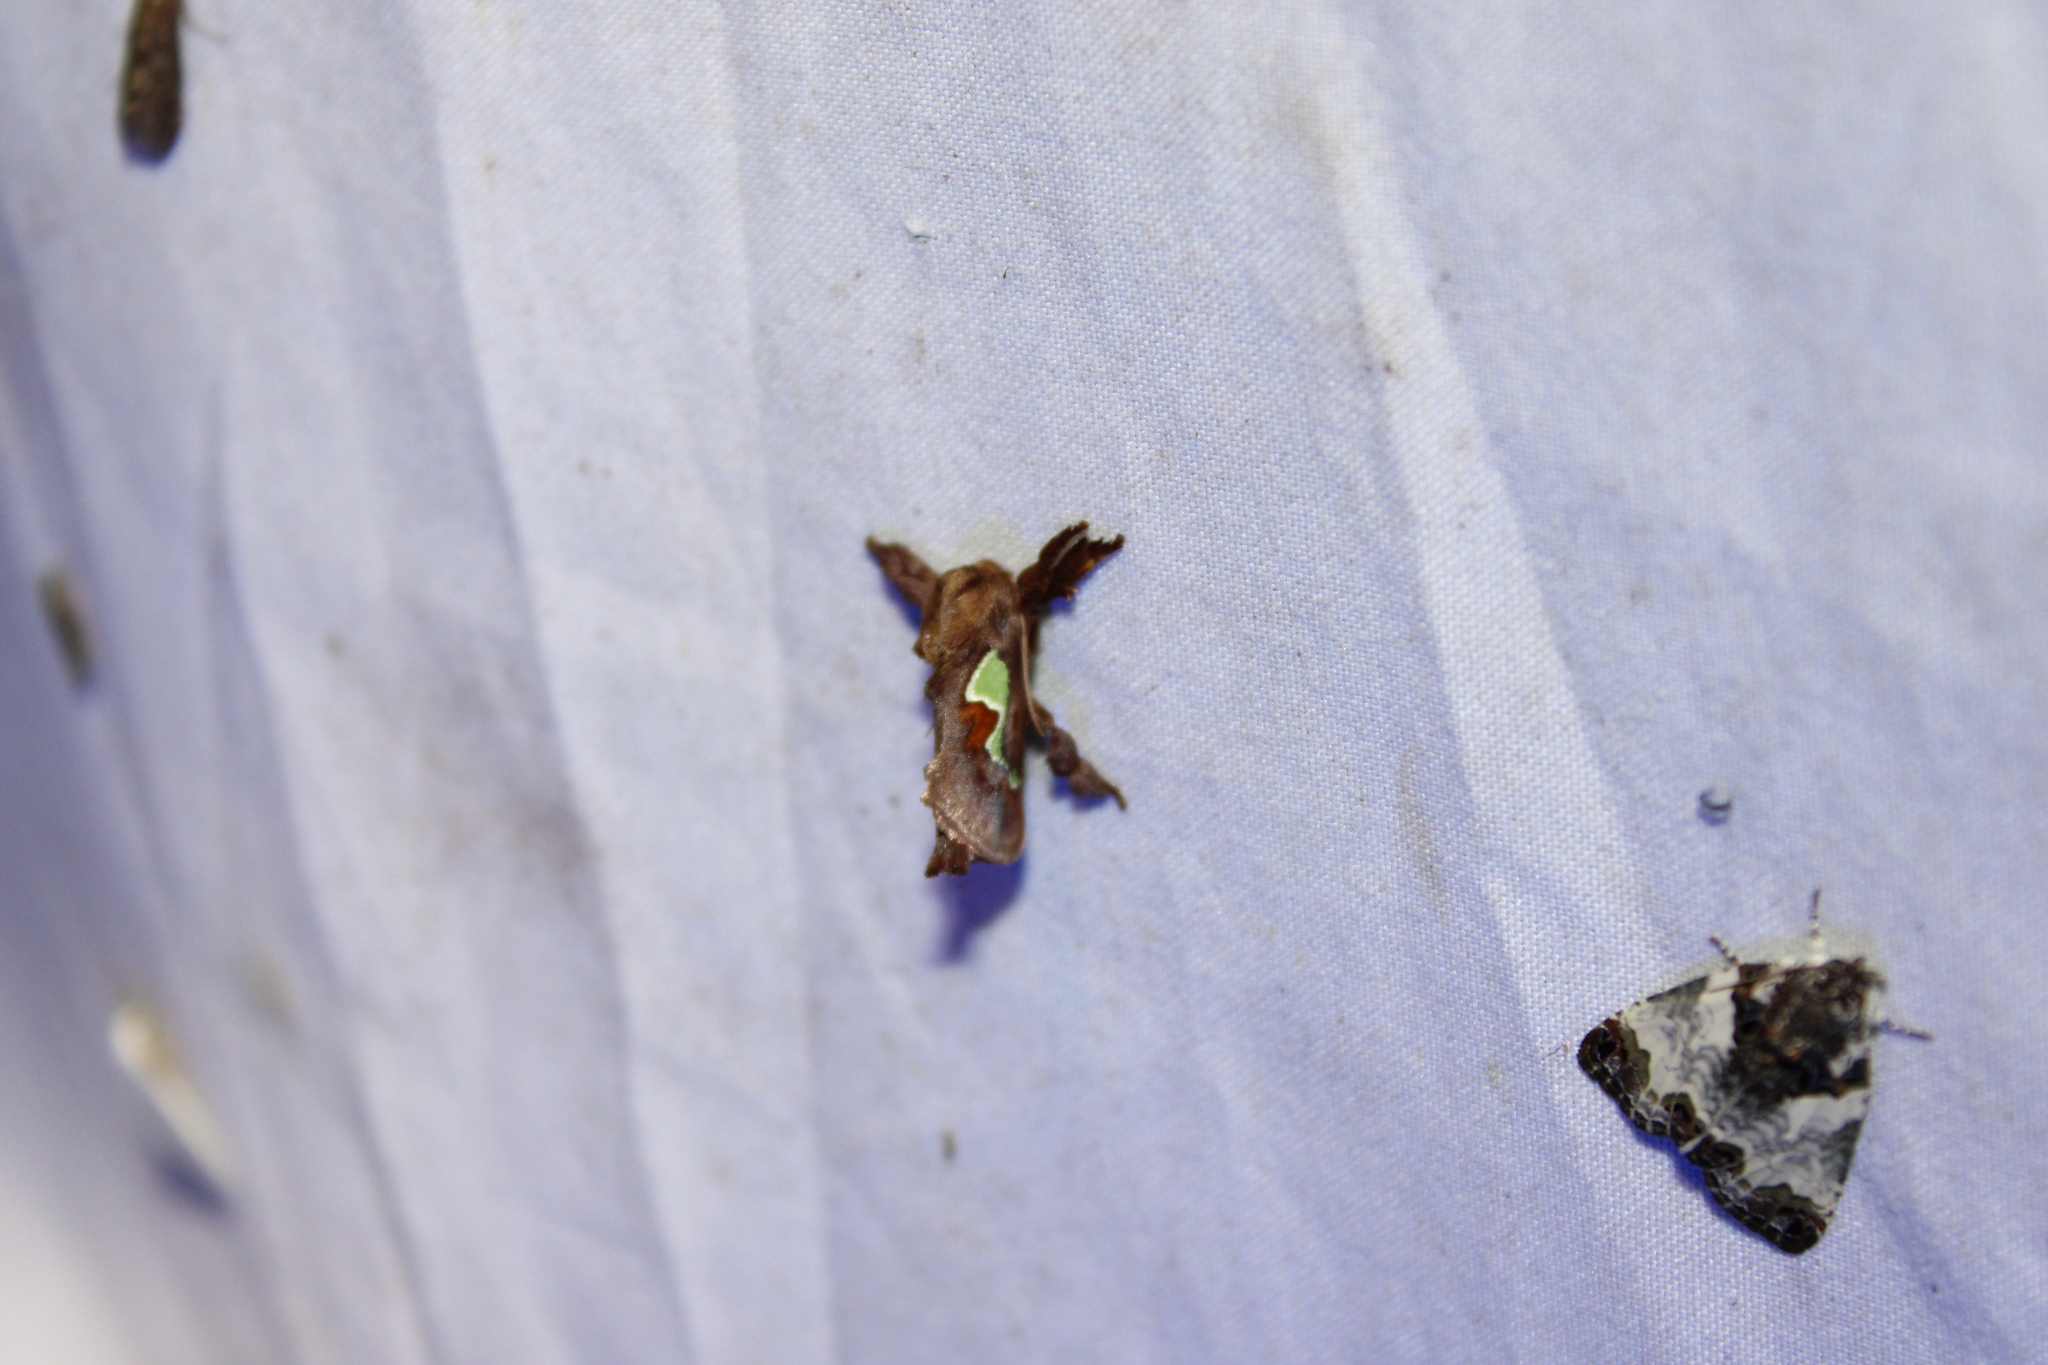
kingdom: Animalia
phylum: Arthropoda
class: Insecta
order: Lepidoptera
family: Limacodidae
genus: Euclea
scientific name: Euclea delphinii
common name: Spiny oak-slug moth
